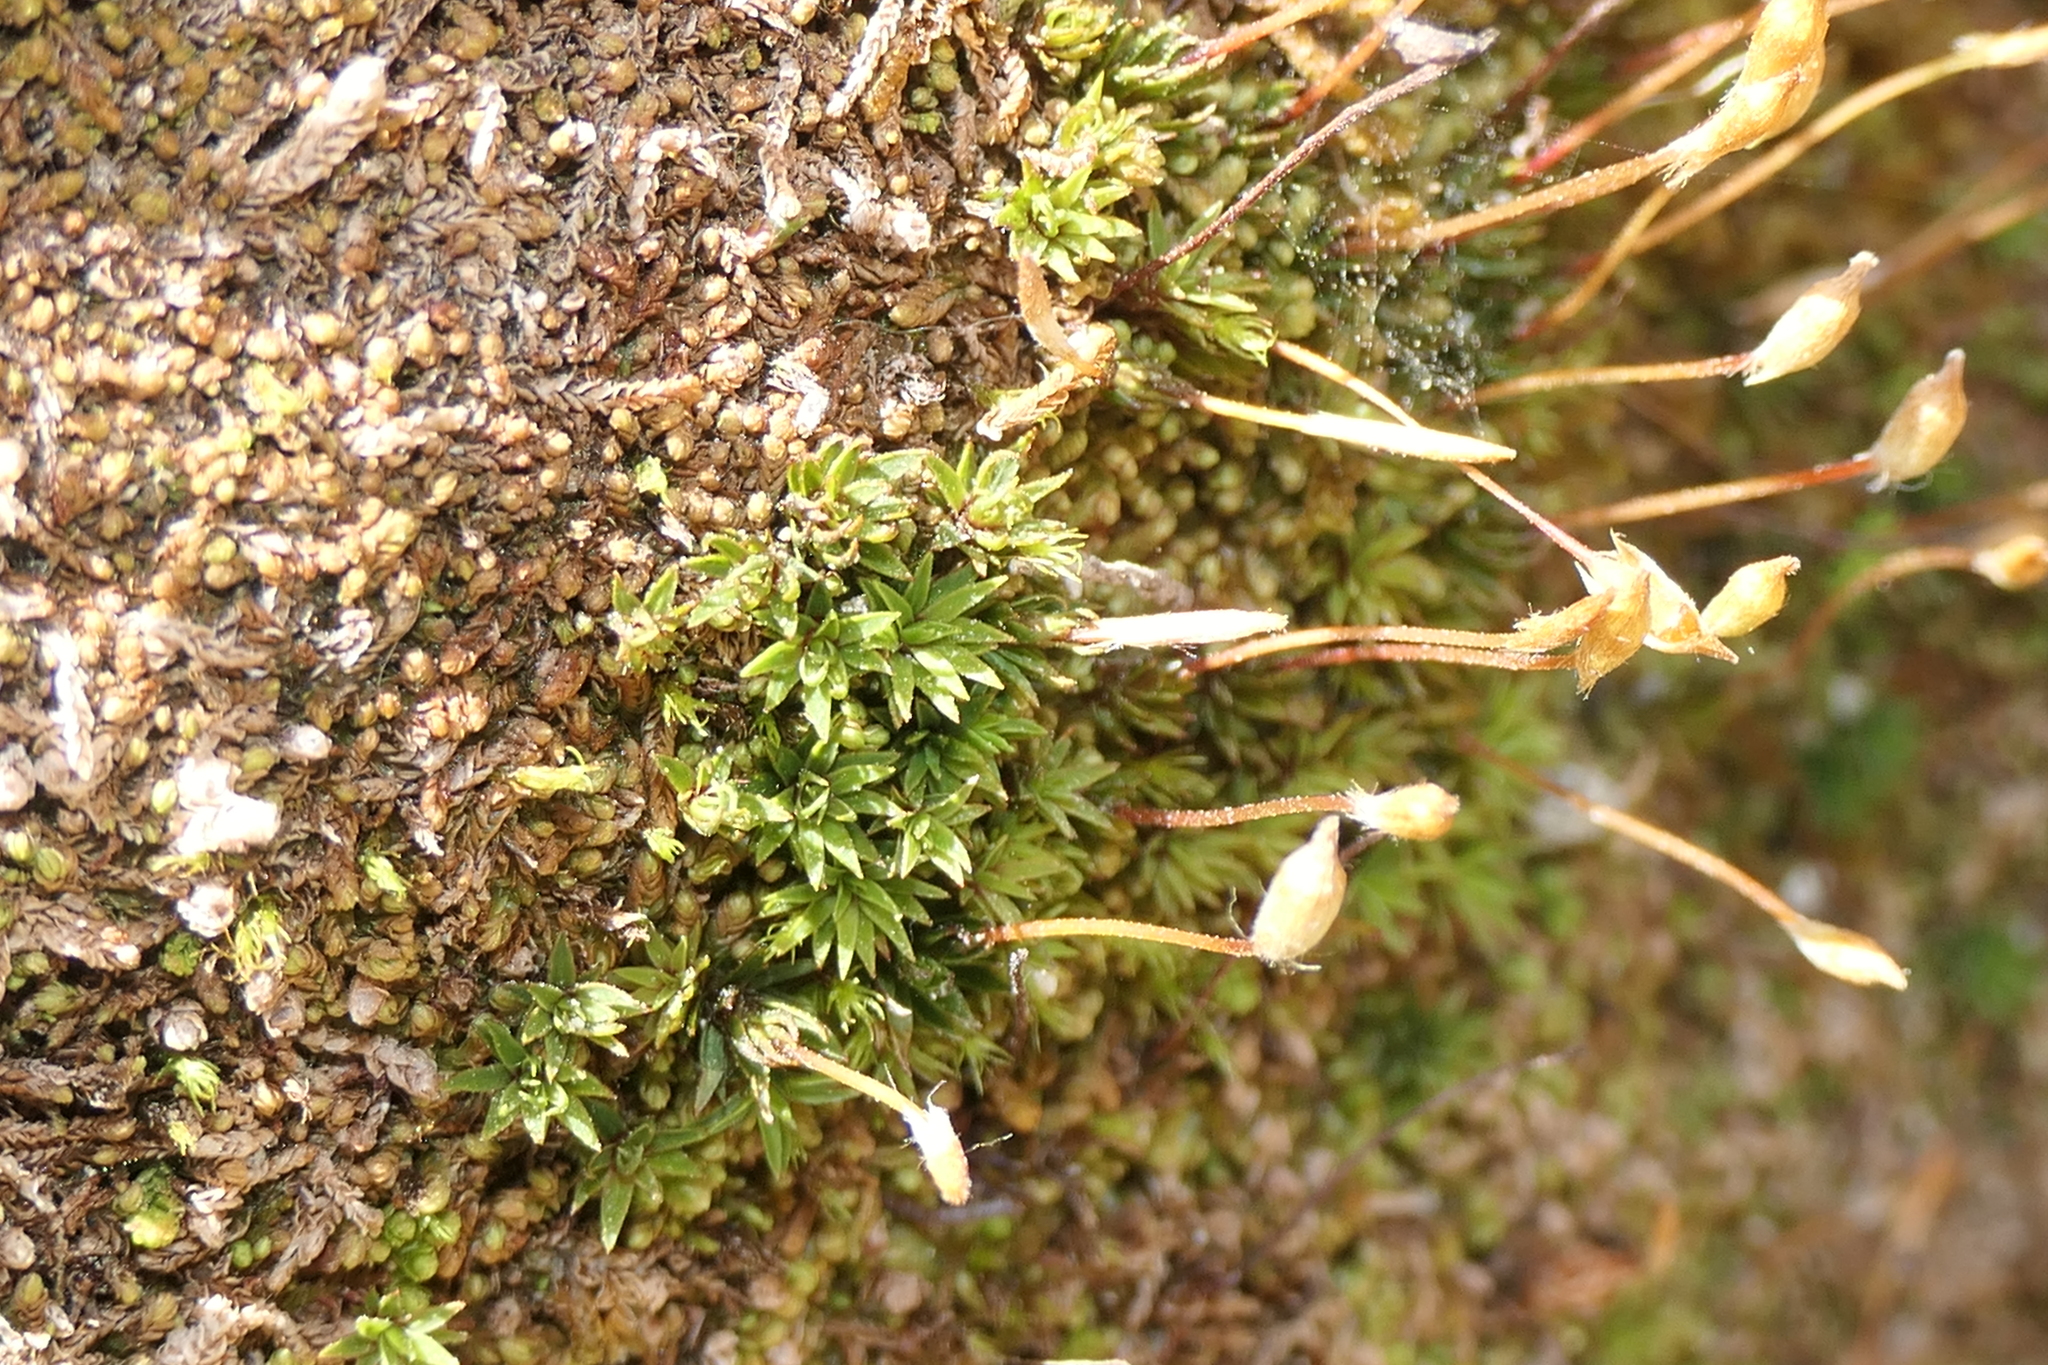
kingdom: Plantae
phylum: Bryophyta
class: Polytrichopsida
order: Polytrichales
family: Polytrichaceae
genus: Pogonatum
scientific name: Pogonatum aloides
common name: Aloe haircap
